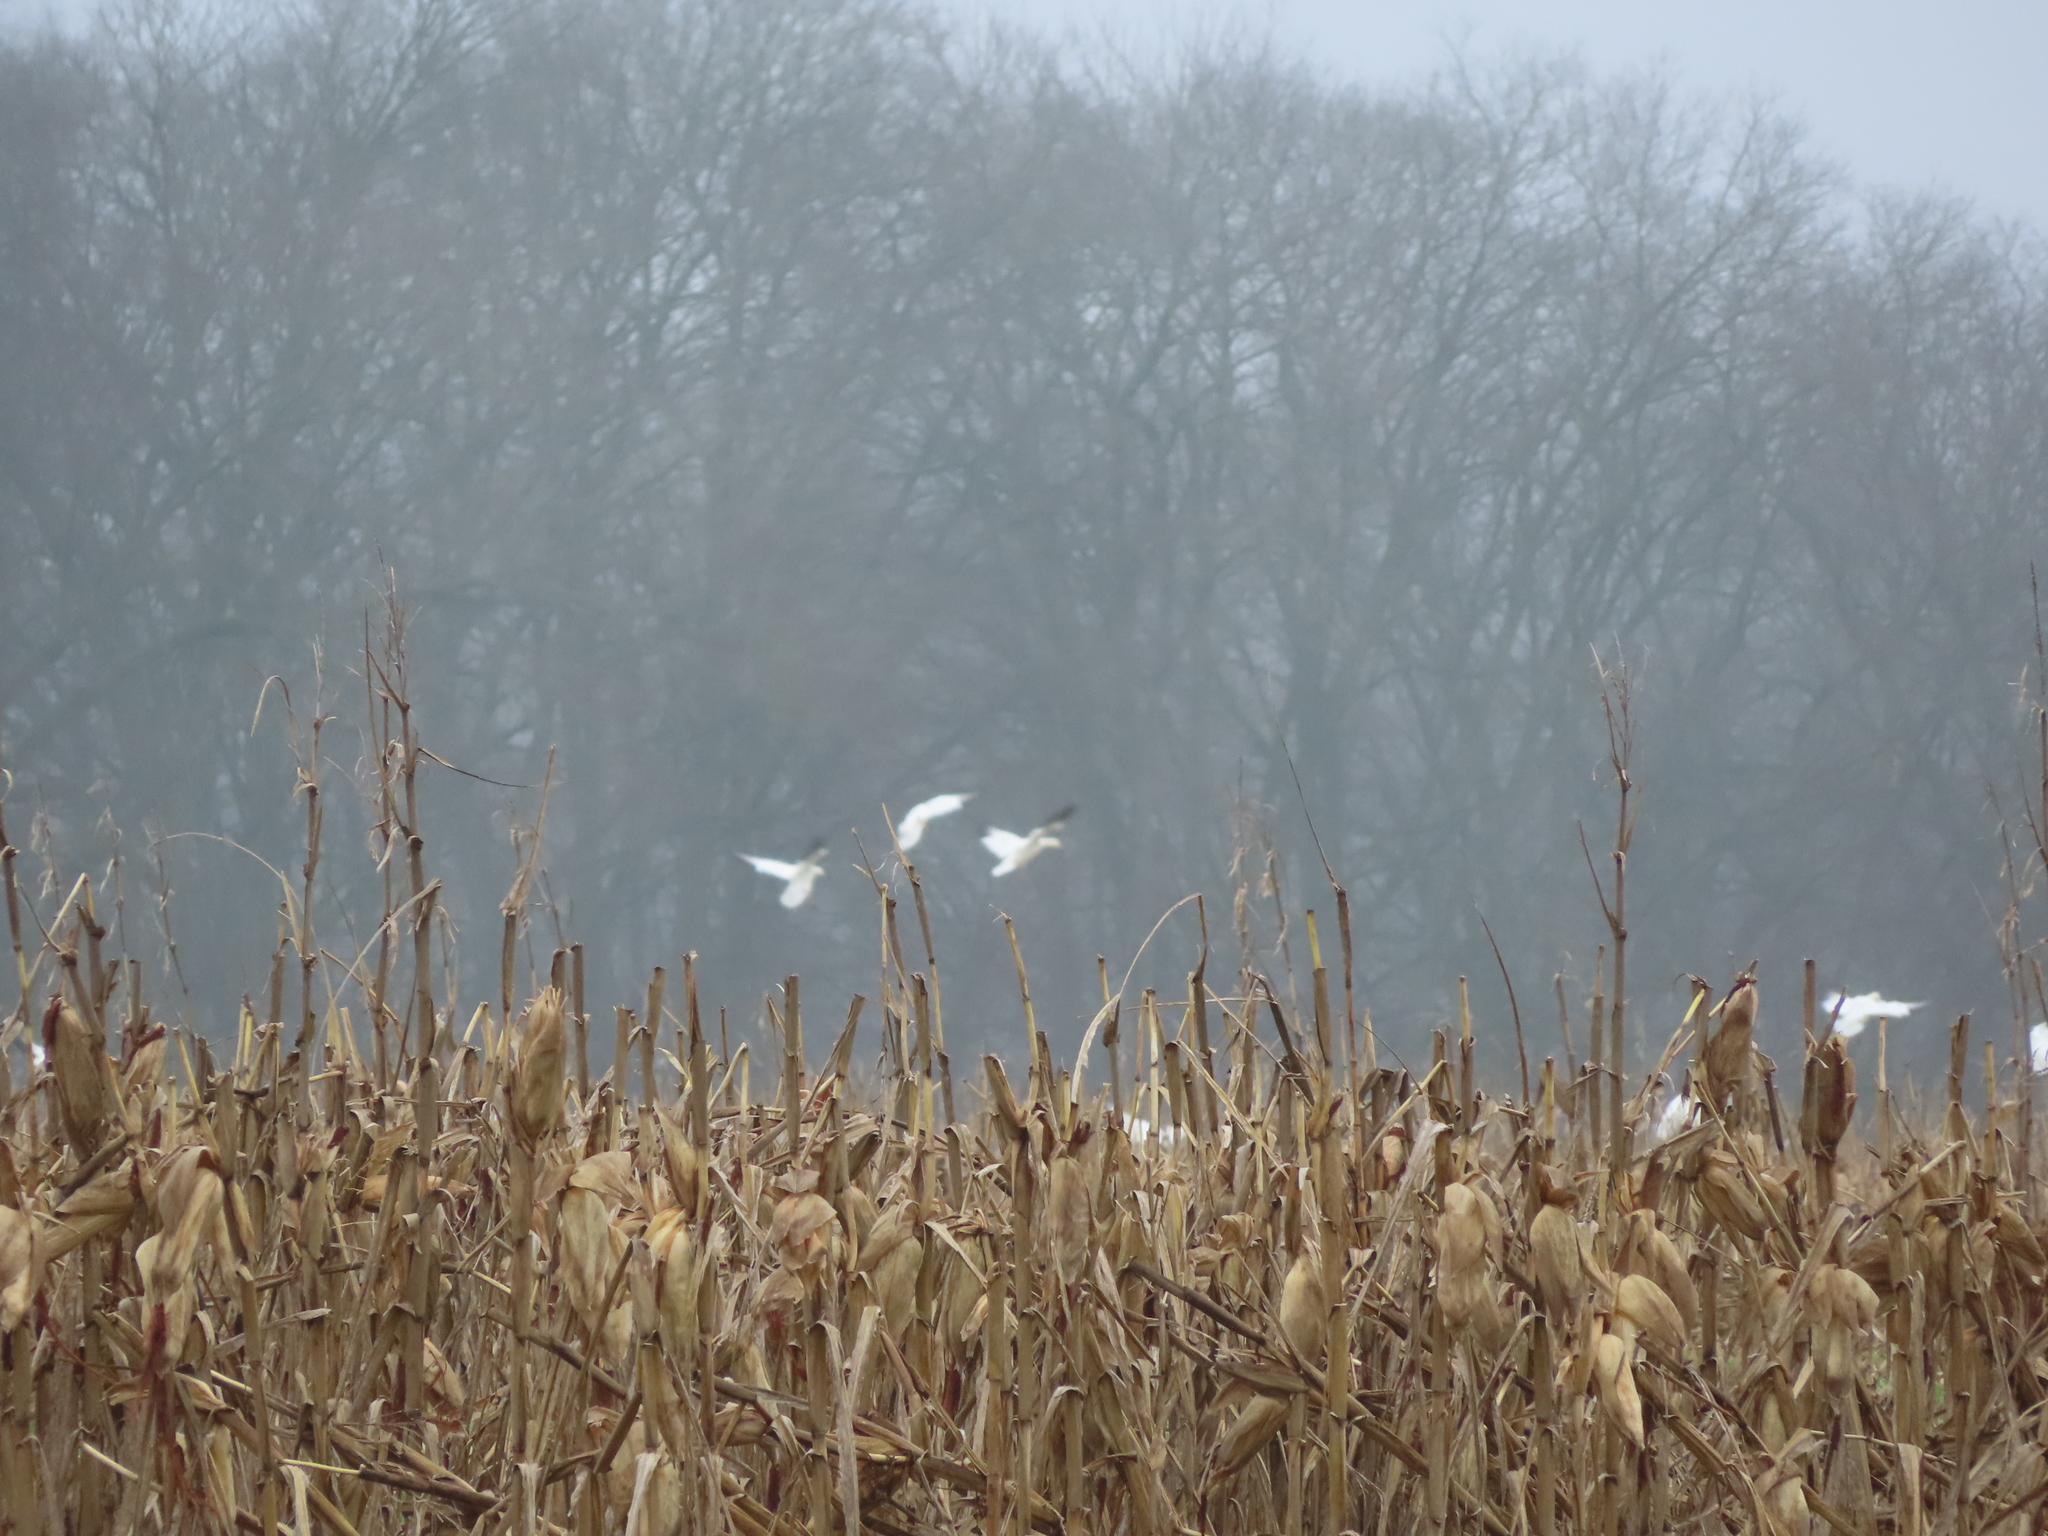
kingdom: Animalia
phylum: Chordata
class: Aves
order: Anseriformes
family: Anatidae
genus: Anser
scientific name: Anser caerulescens
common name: Snow goose
